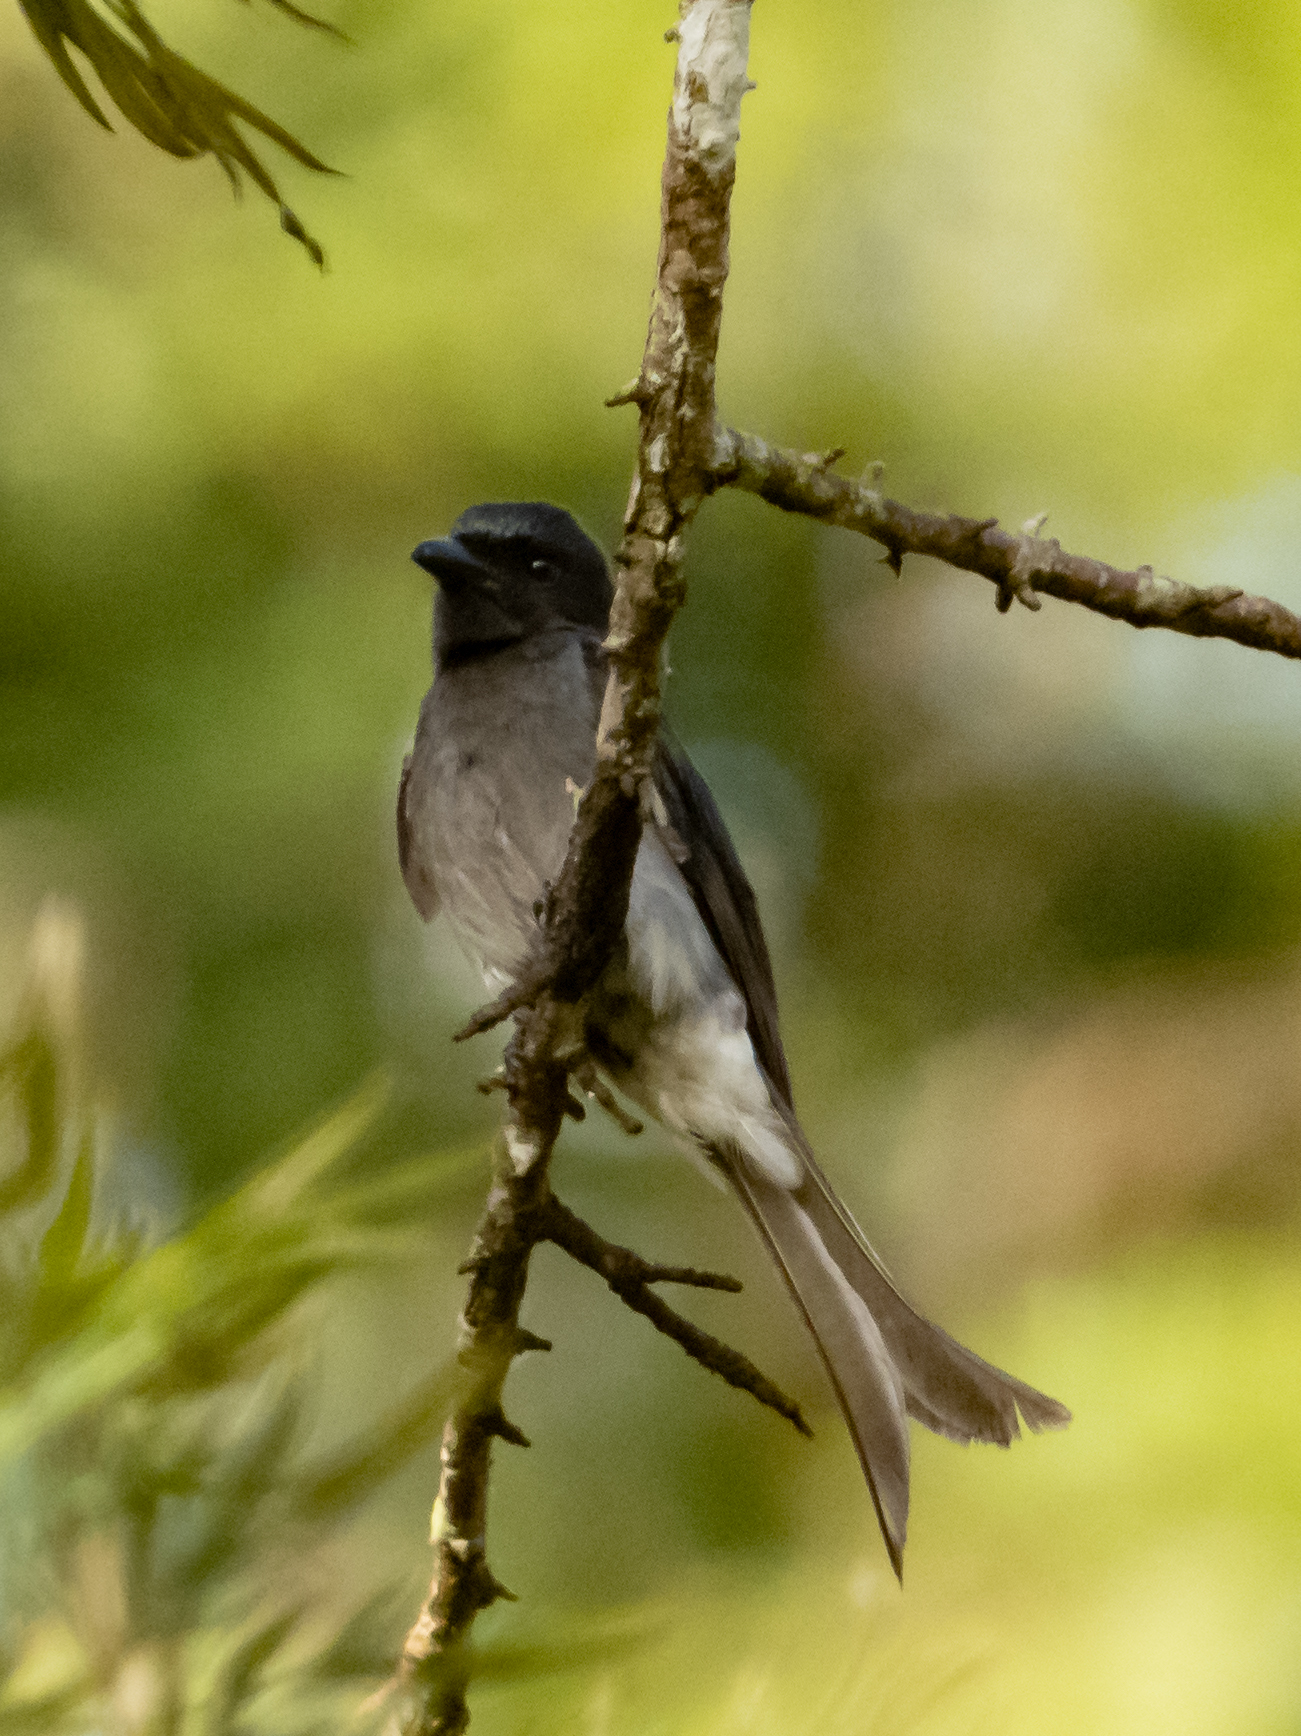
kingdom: Animalia
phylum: Chordata
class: Aves
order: Passeriformes
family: Dicruridae
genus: Dicrurus
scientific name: Dicrurus caerulescens
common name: White-bellied drongo
